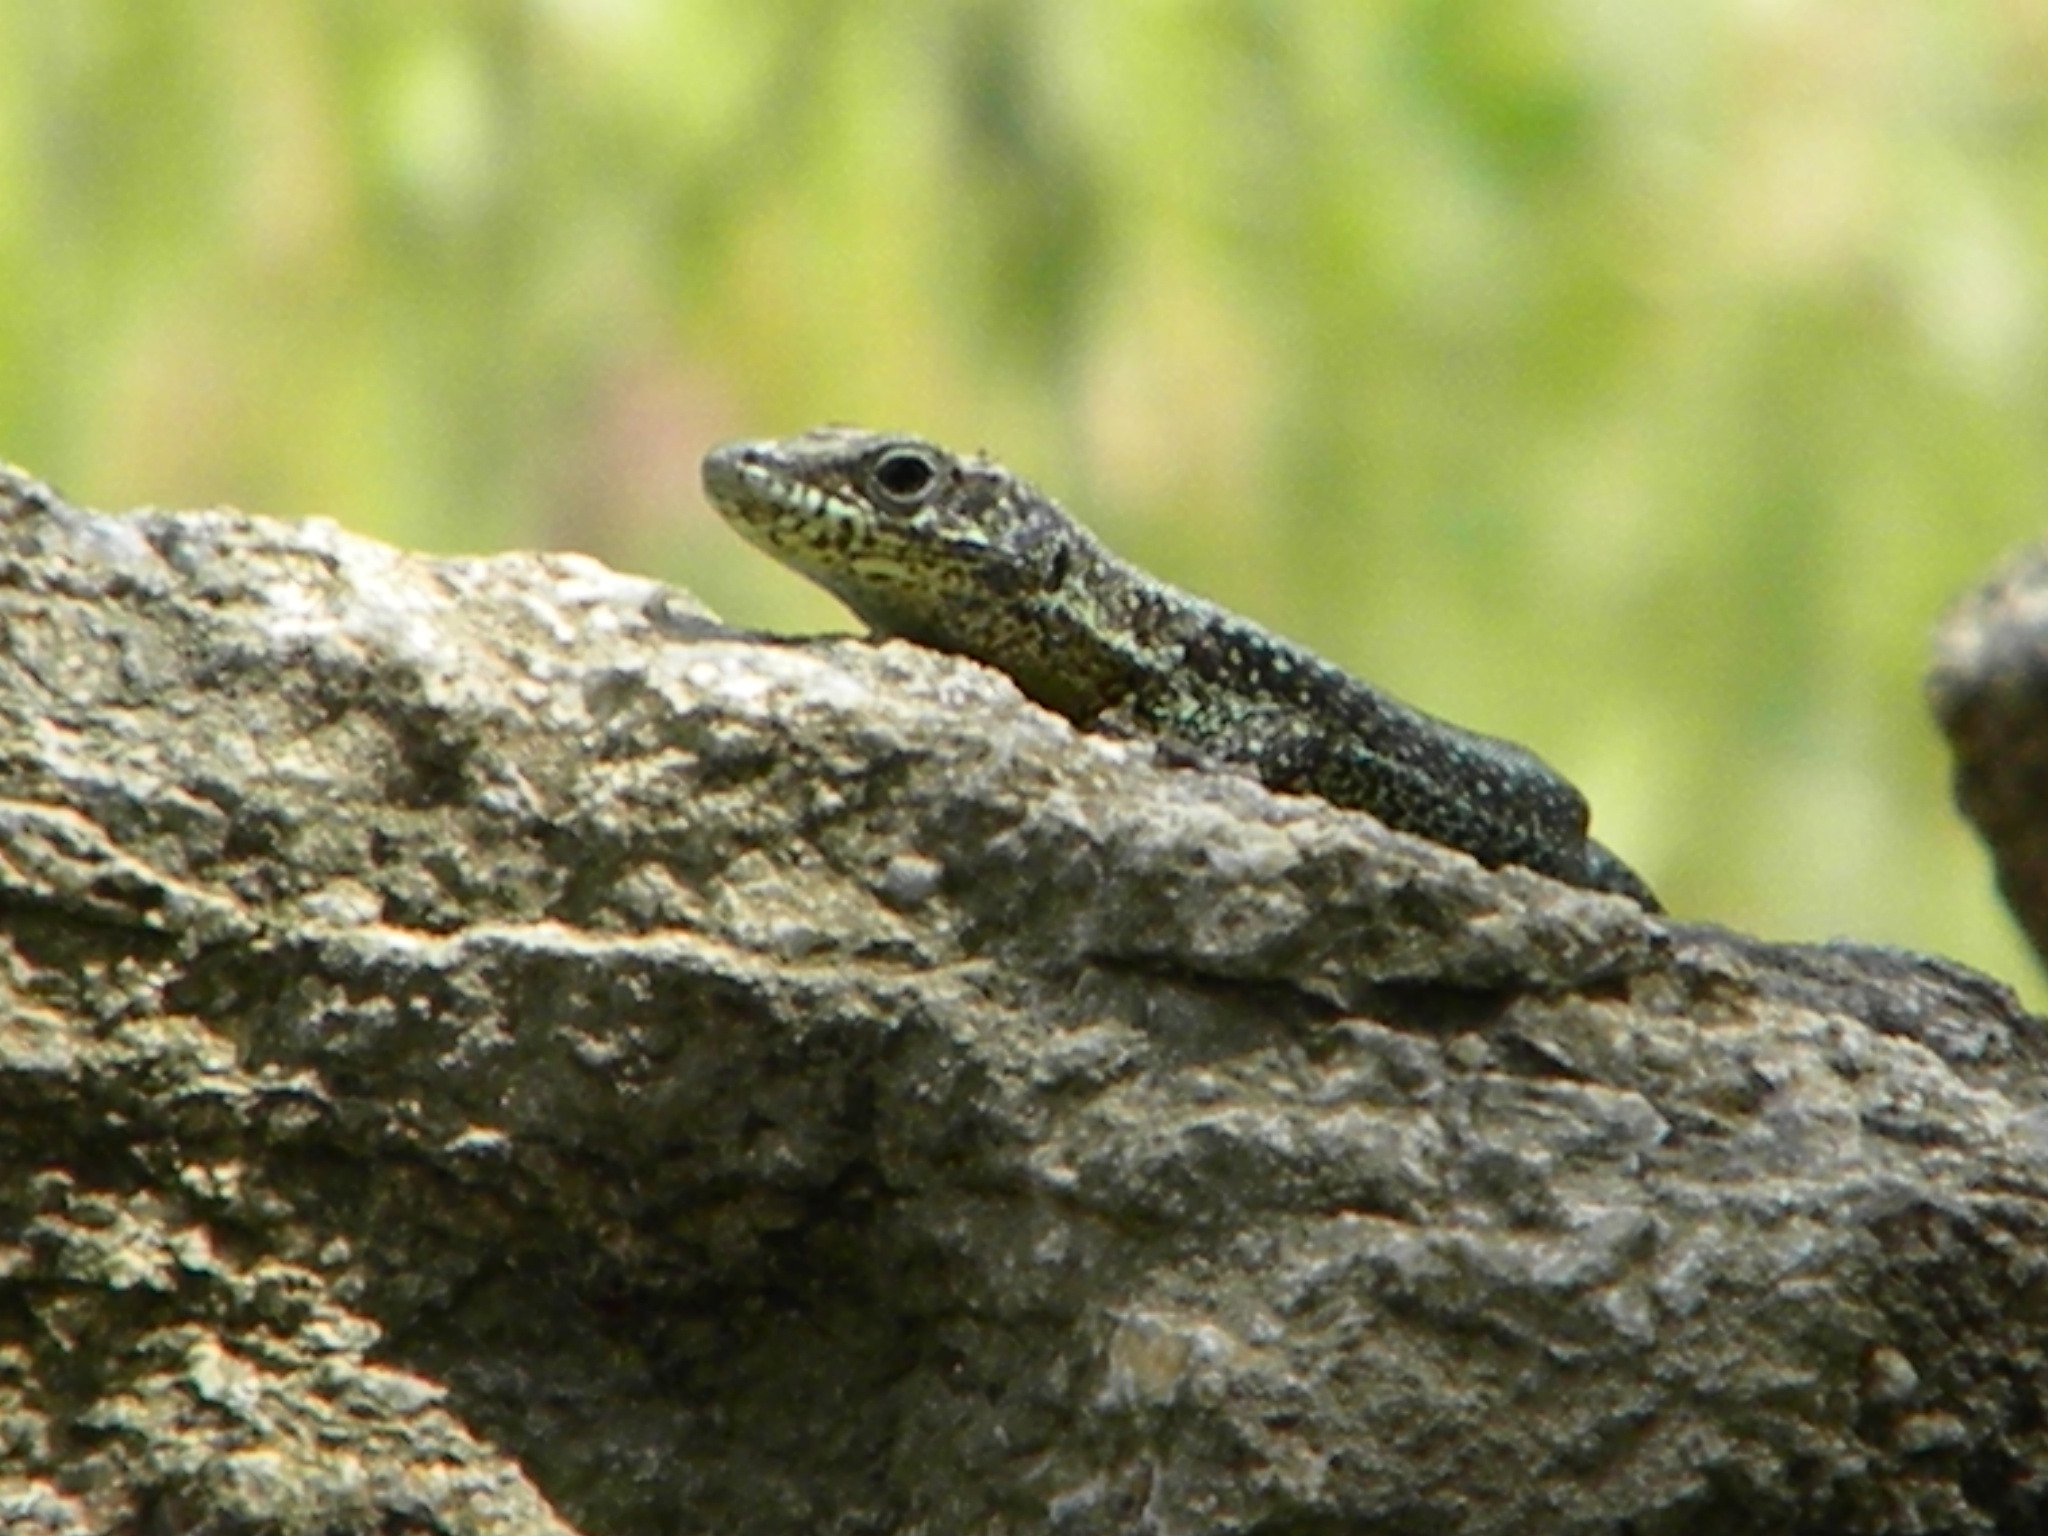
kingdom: Animalia
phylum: Chordata
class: Squamata
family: Lacertidae
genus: Anatololacerta
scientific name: Anatololacerta anatolica
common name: Anatolian rock lizard
